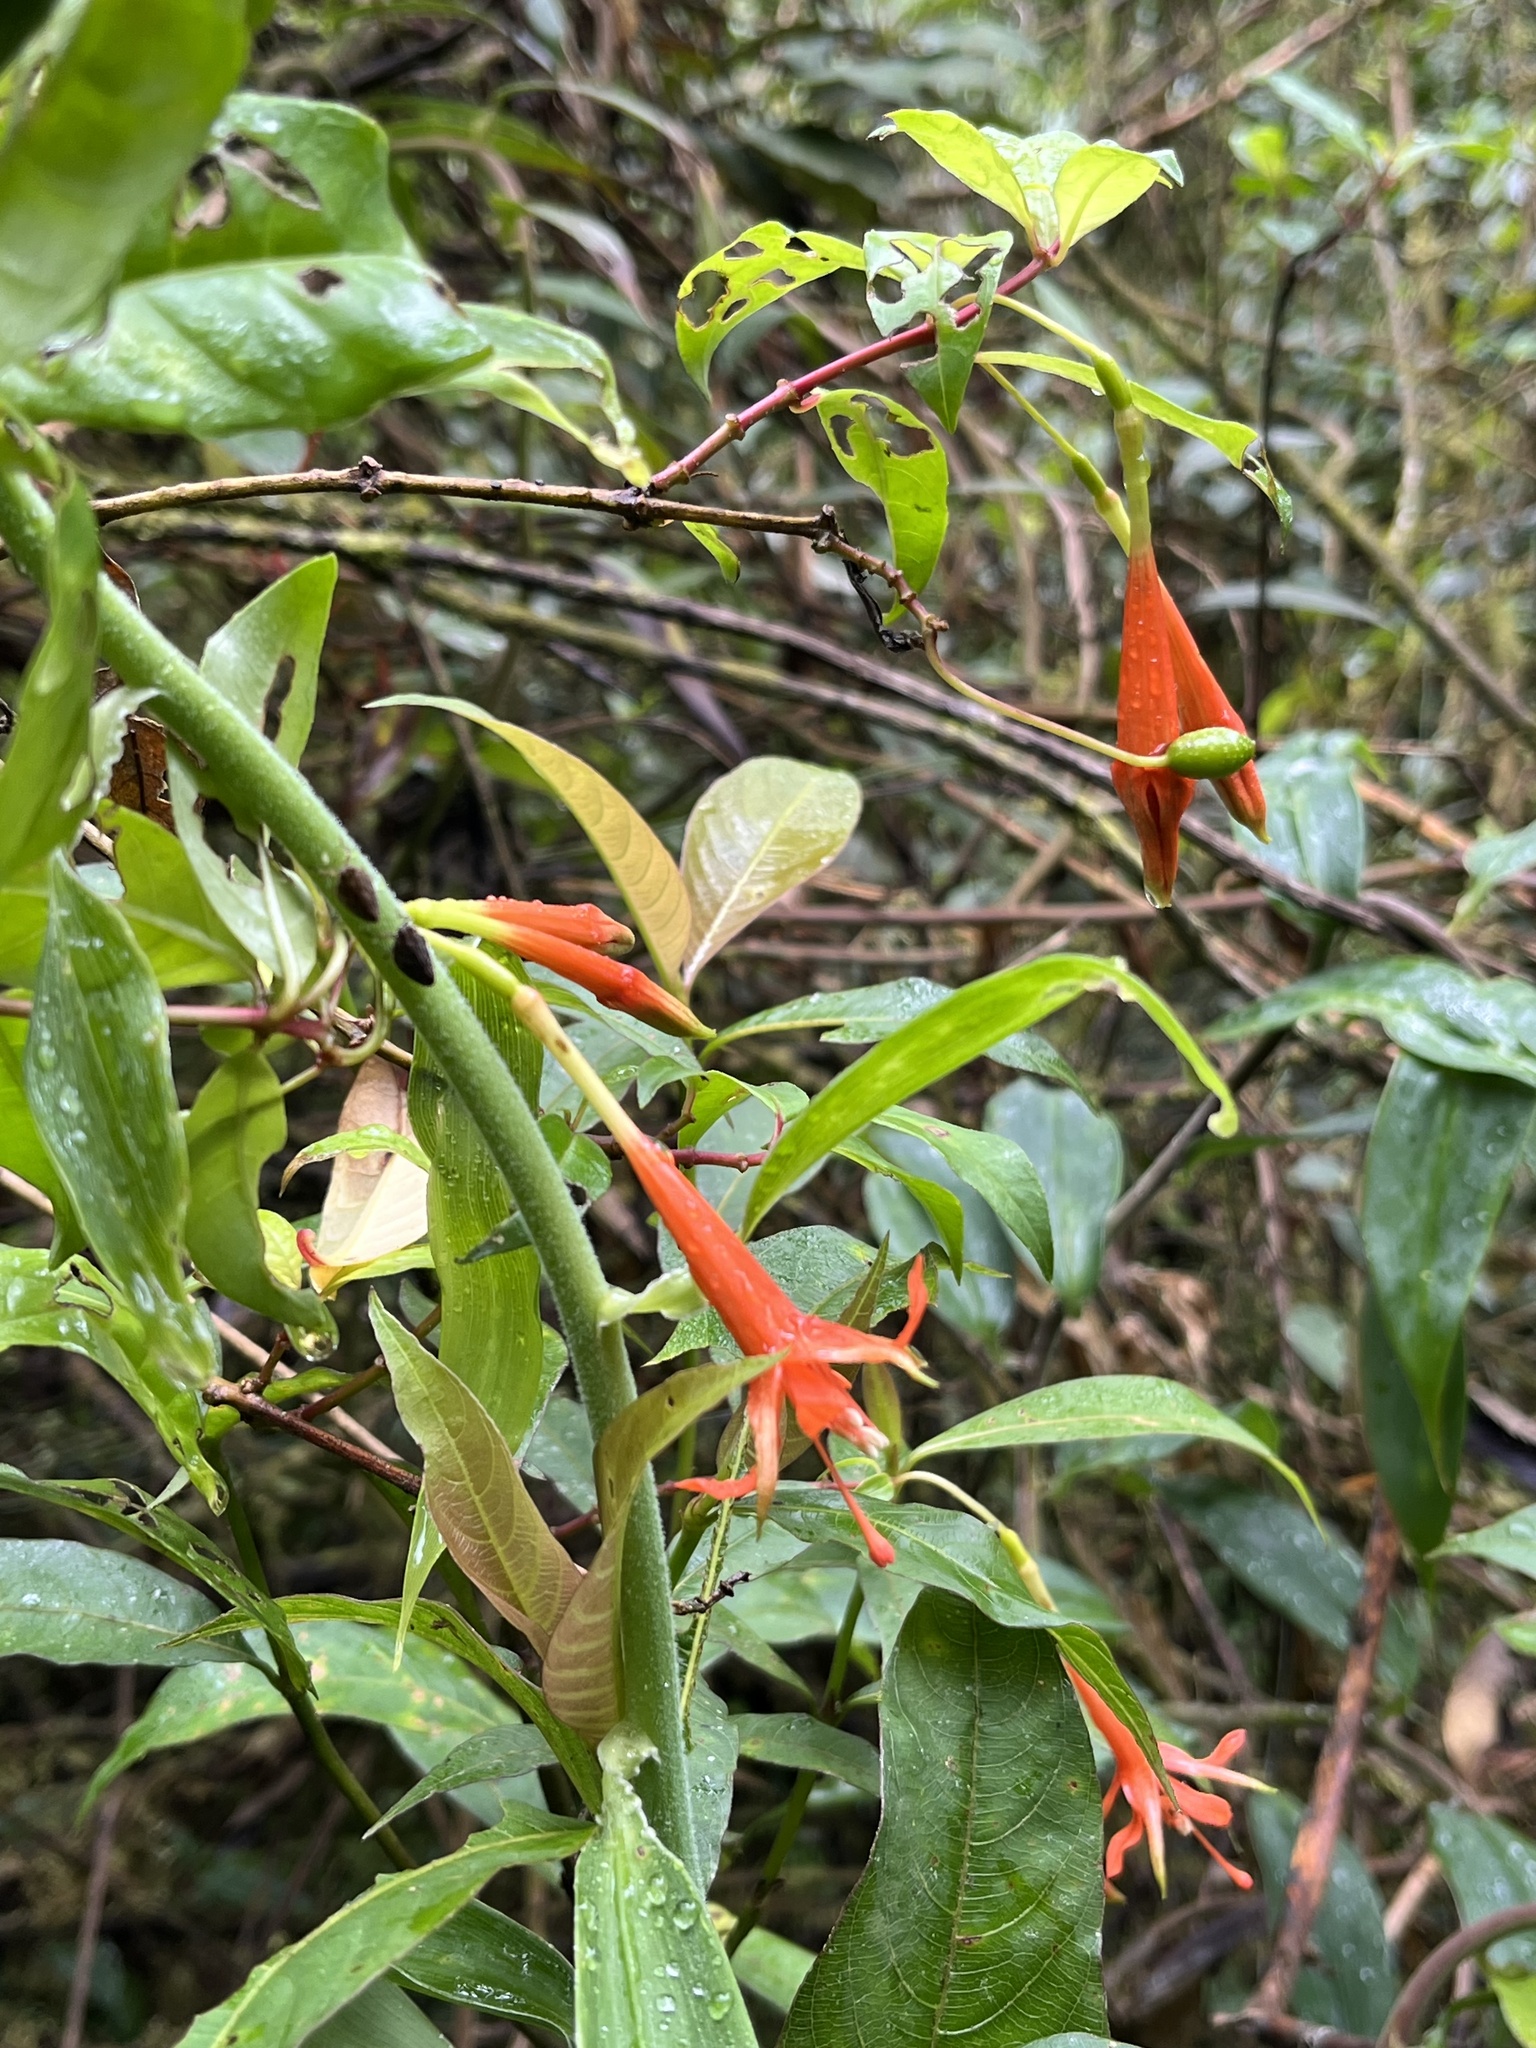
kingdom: Plantae
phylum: Tracheophyta
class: Magnoliopsida
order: Myrtales
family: Onagraceae
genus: Fuchsia
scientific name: Fuchsia venusta
